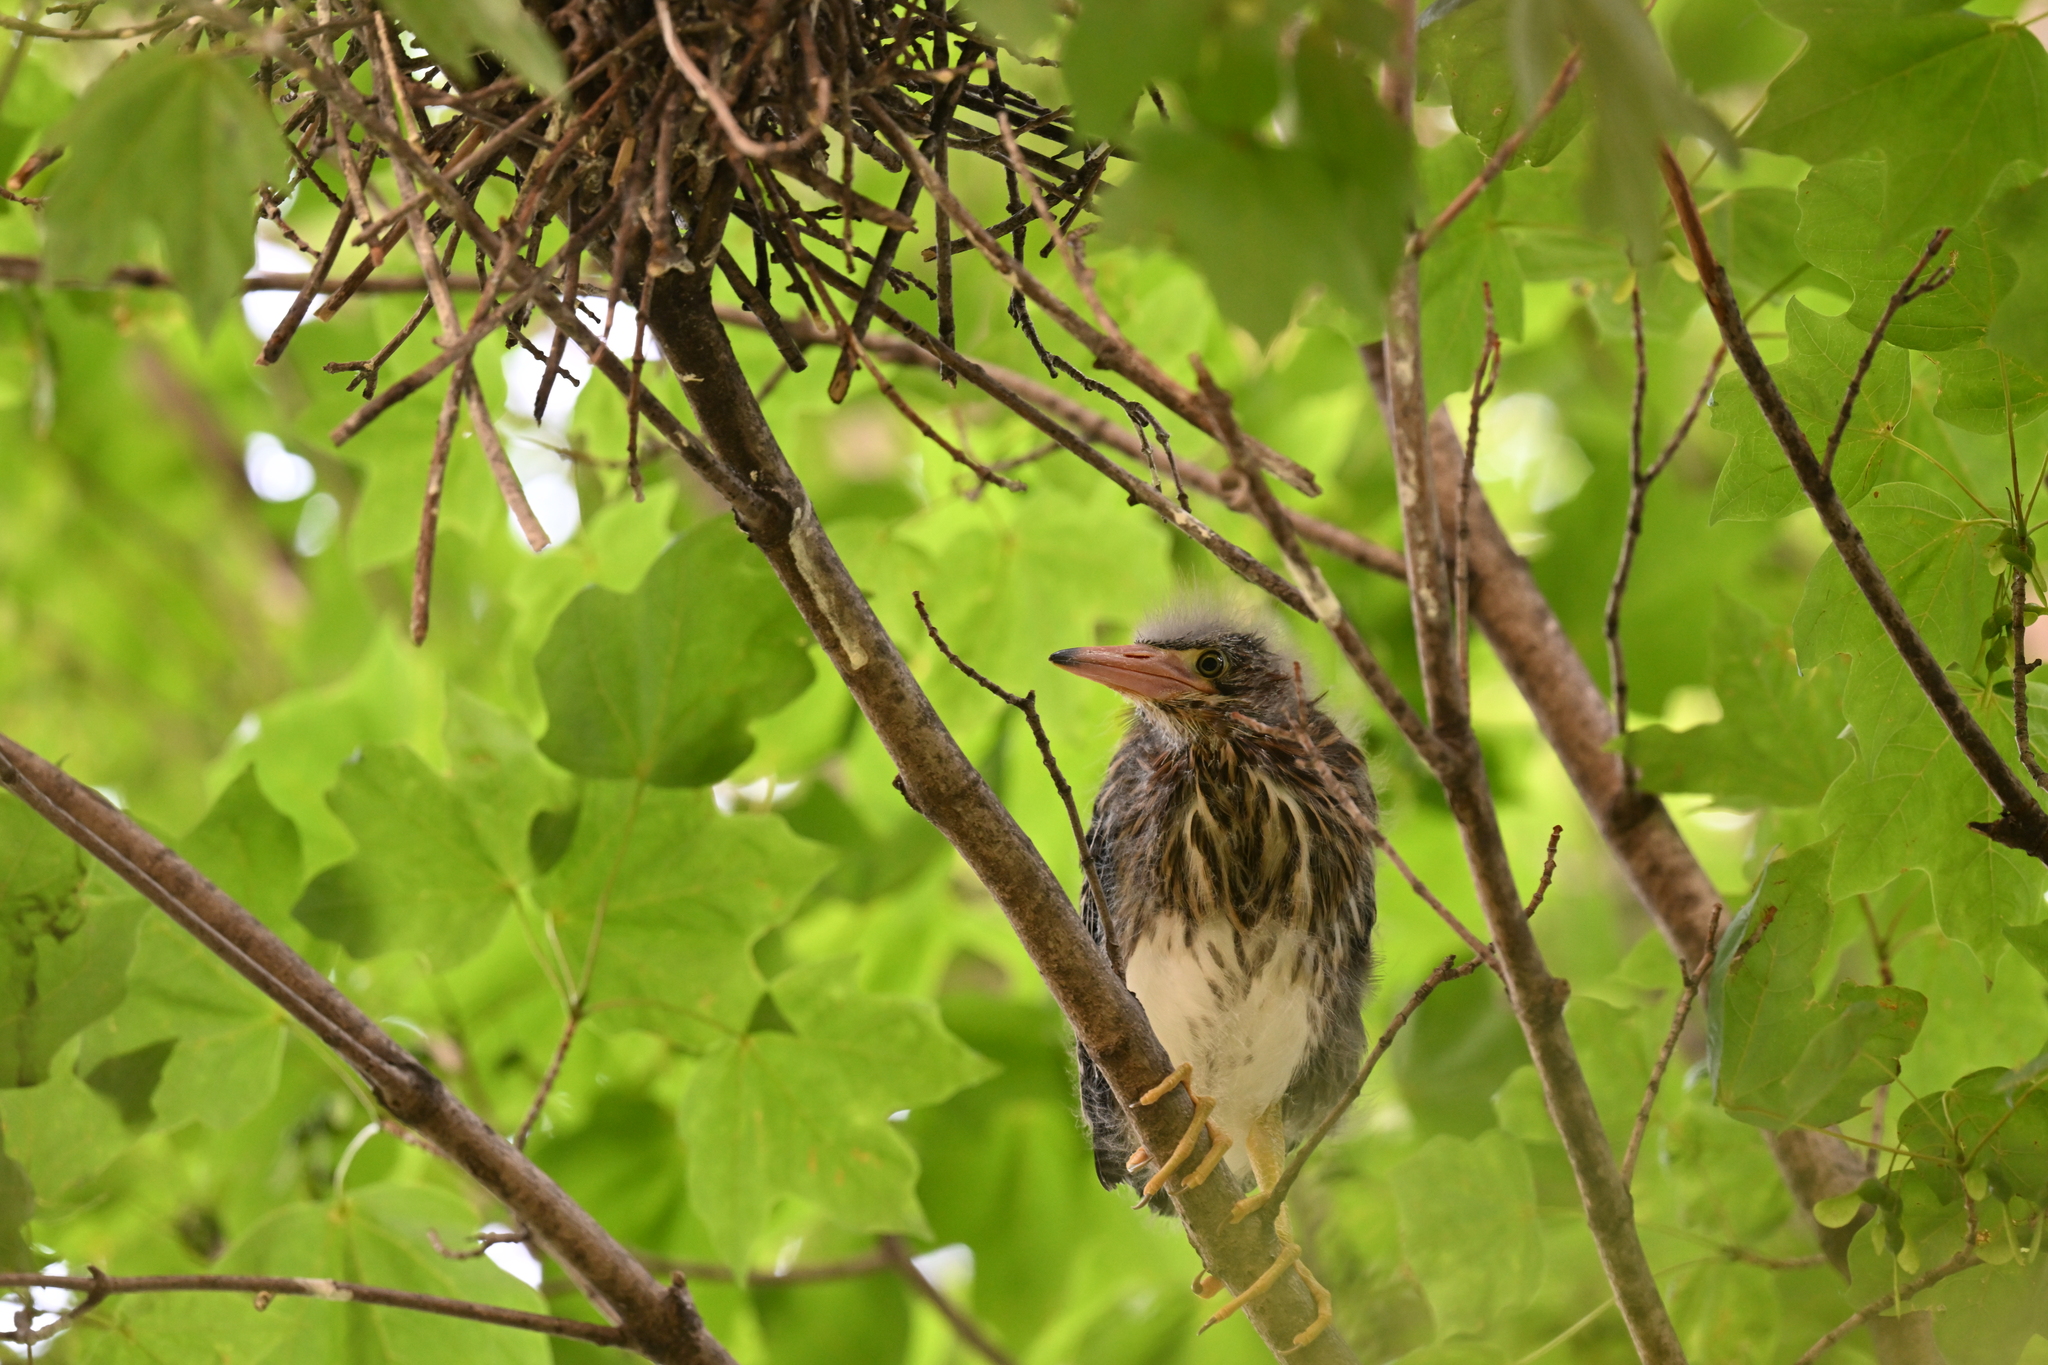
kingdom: Animalia
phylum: Chordata
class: Aves
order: Pelecaniformes
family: Ardeidae
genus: Butorides
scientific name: Butorides virescens
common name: Green heron
